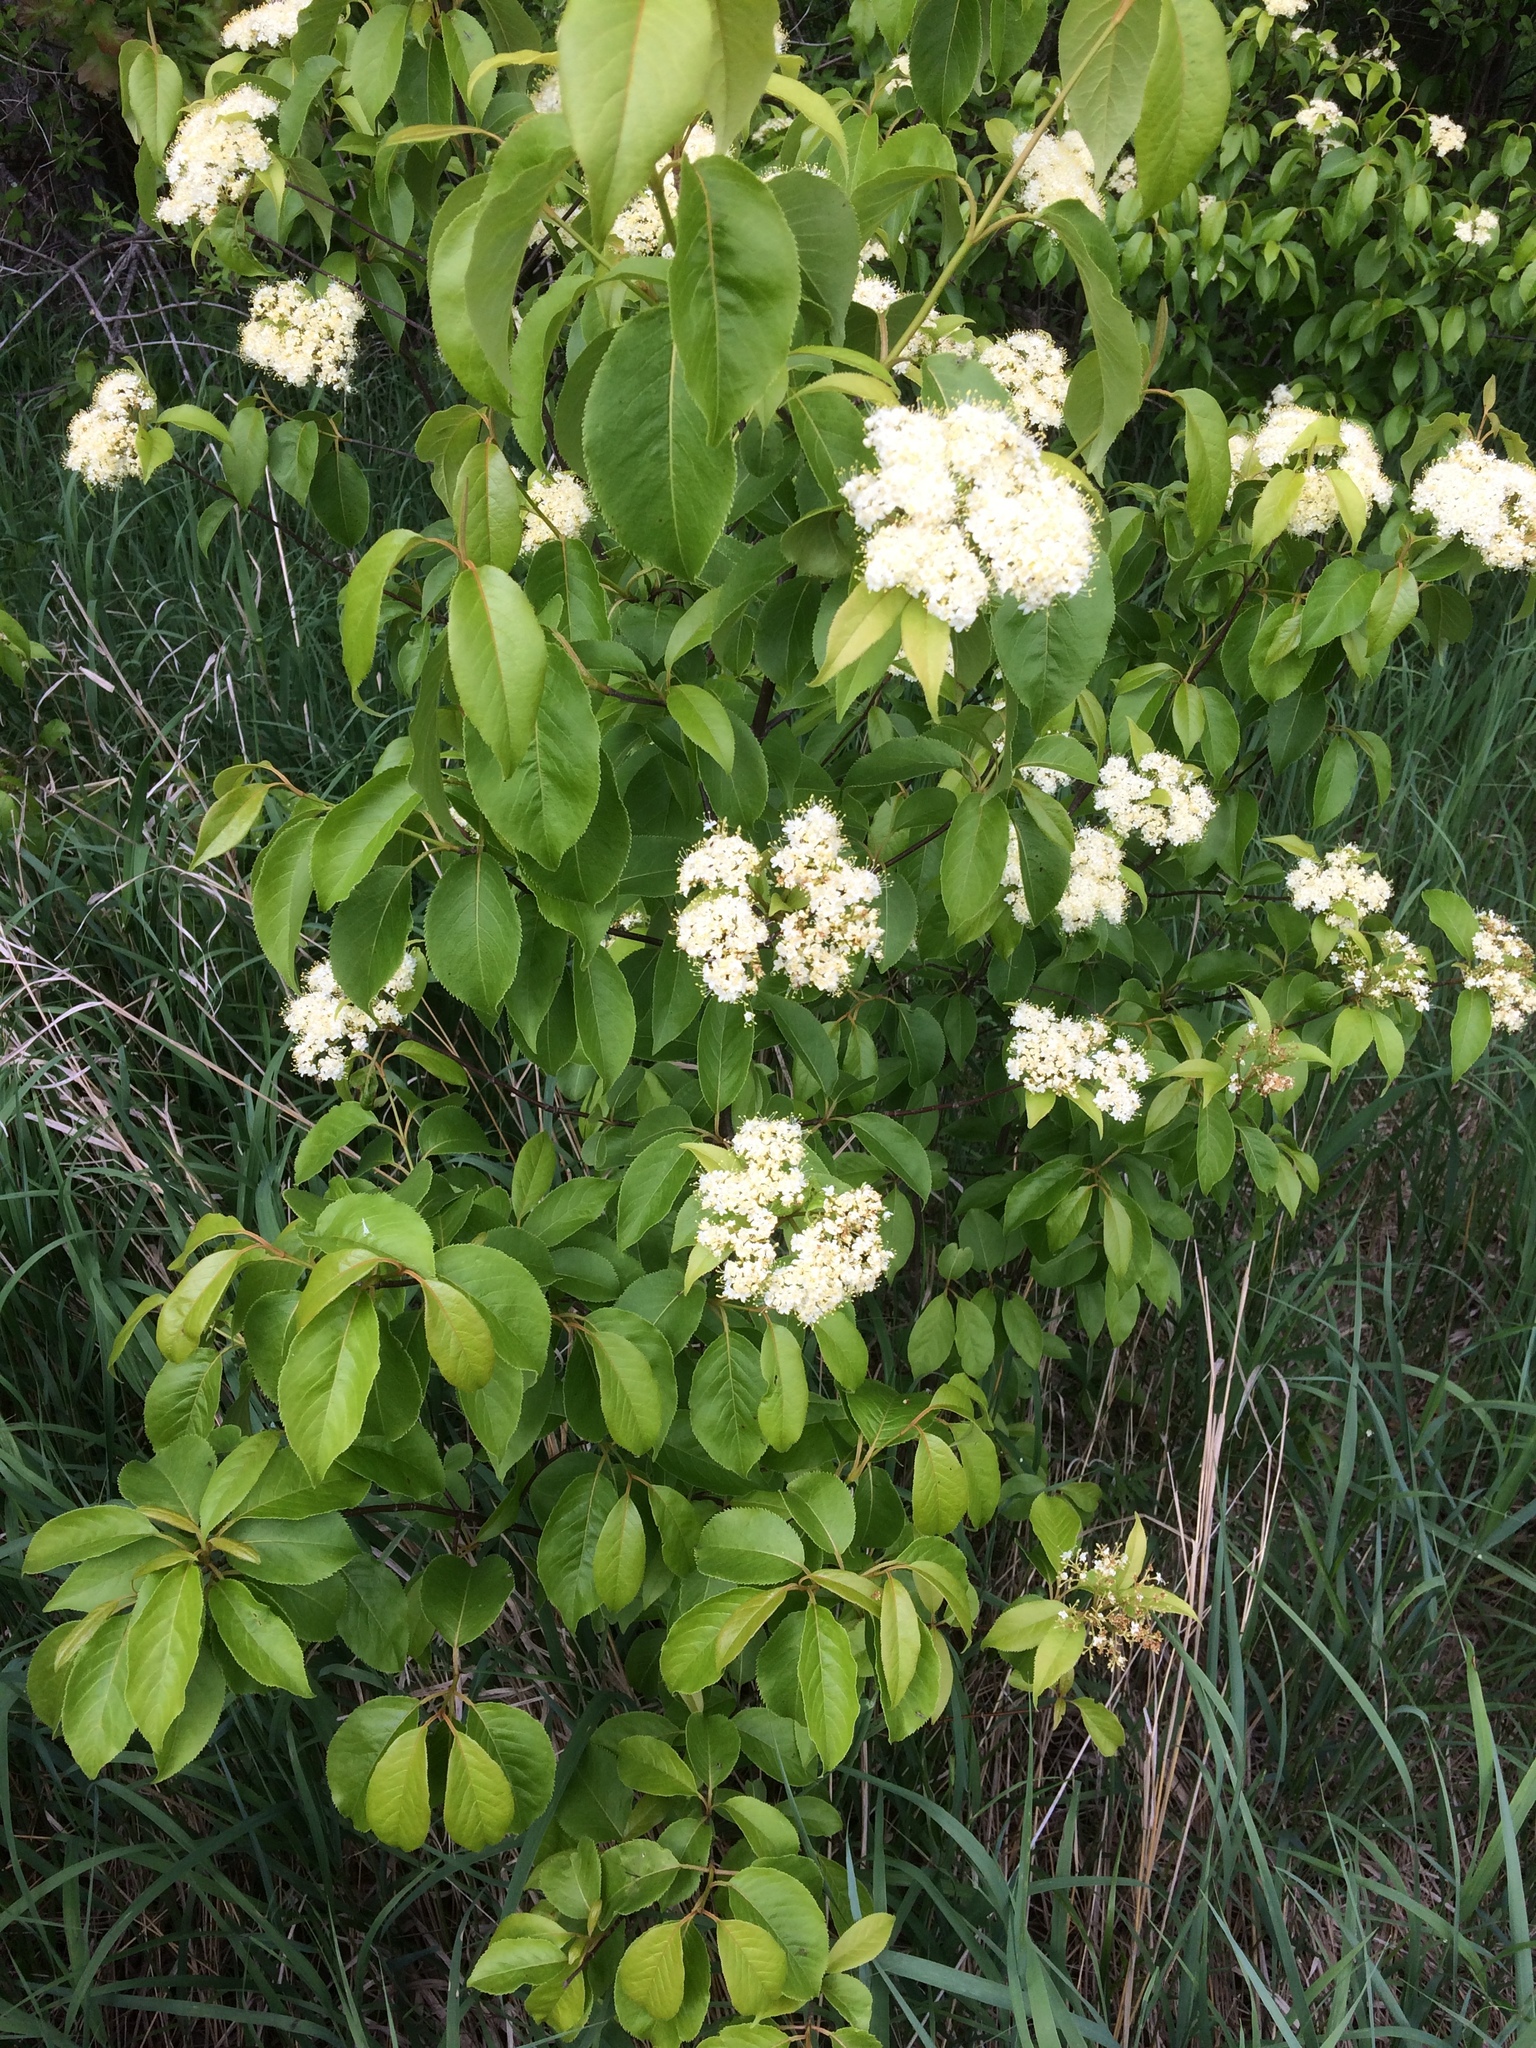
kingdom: Plantae
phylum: Tracheophyta
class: Magnoliopsida
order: Dipsacales
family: Viburnaceae
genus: Viburnum
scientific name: Viburnum lentago
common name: Black haw
